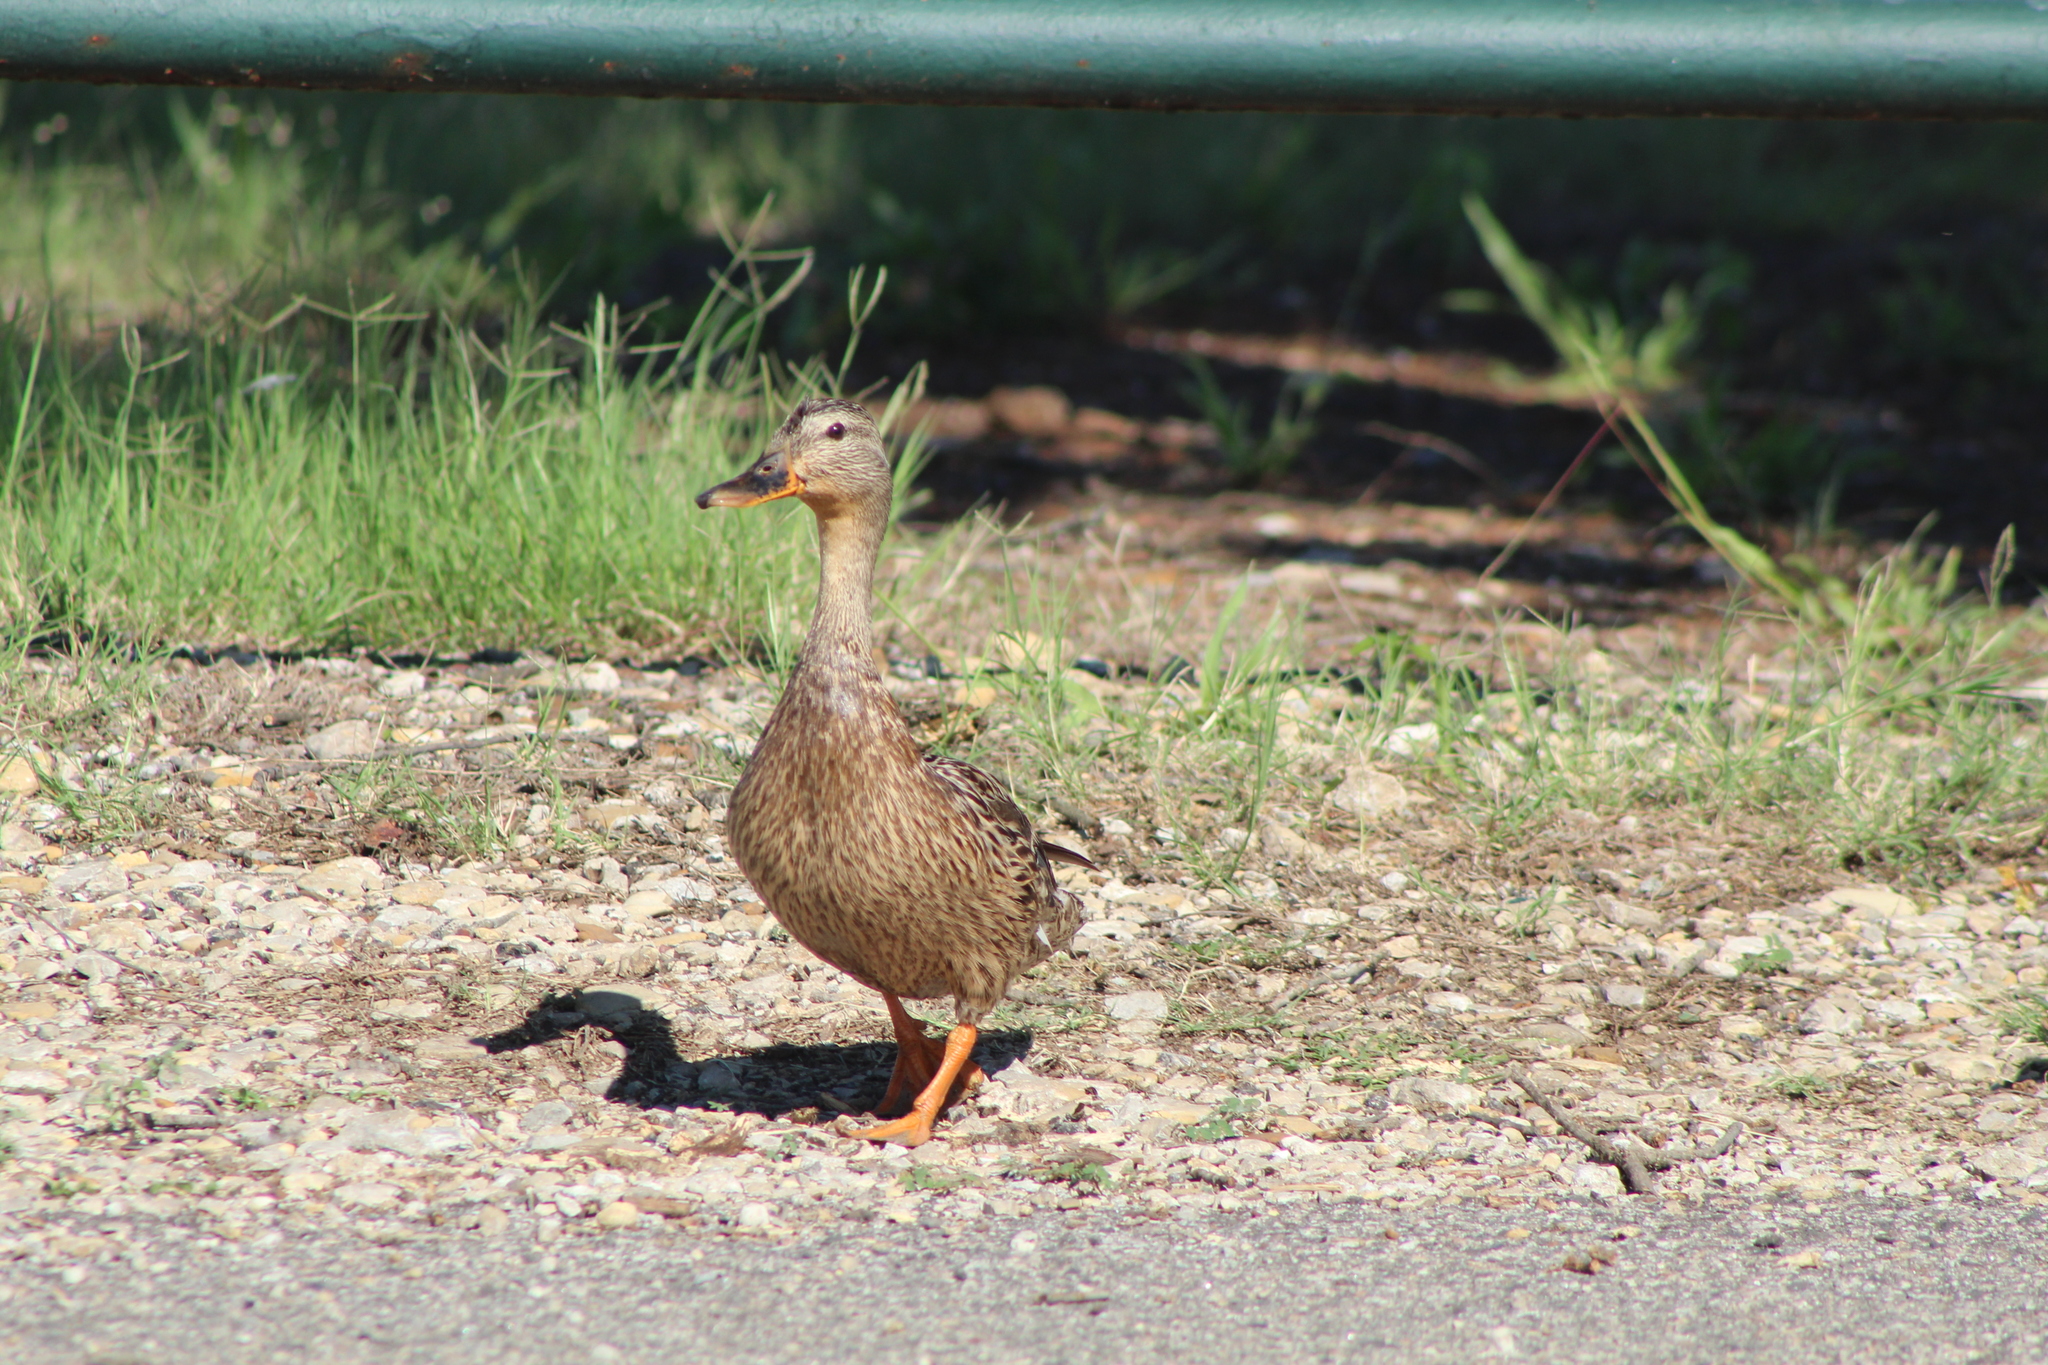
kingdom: Animalia
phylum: Chordata
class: Aves
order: Anseriformes
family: Anatidae
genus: Anas
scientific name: Anas platyrhynchos
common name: Mallard
